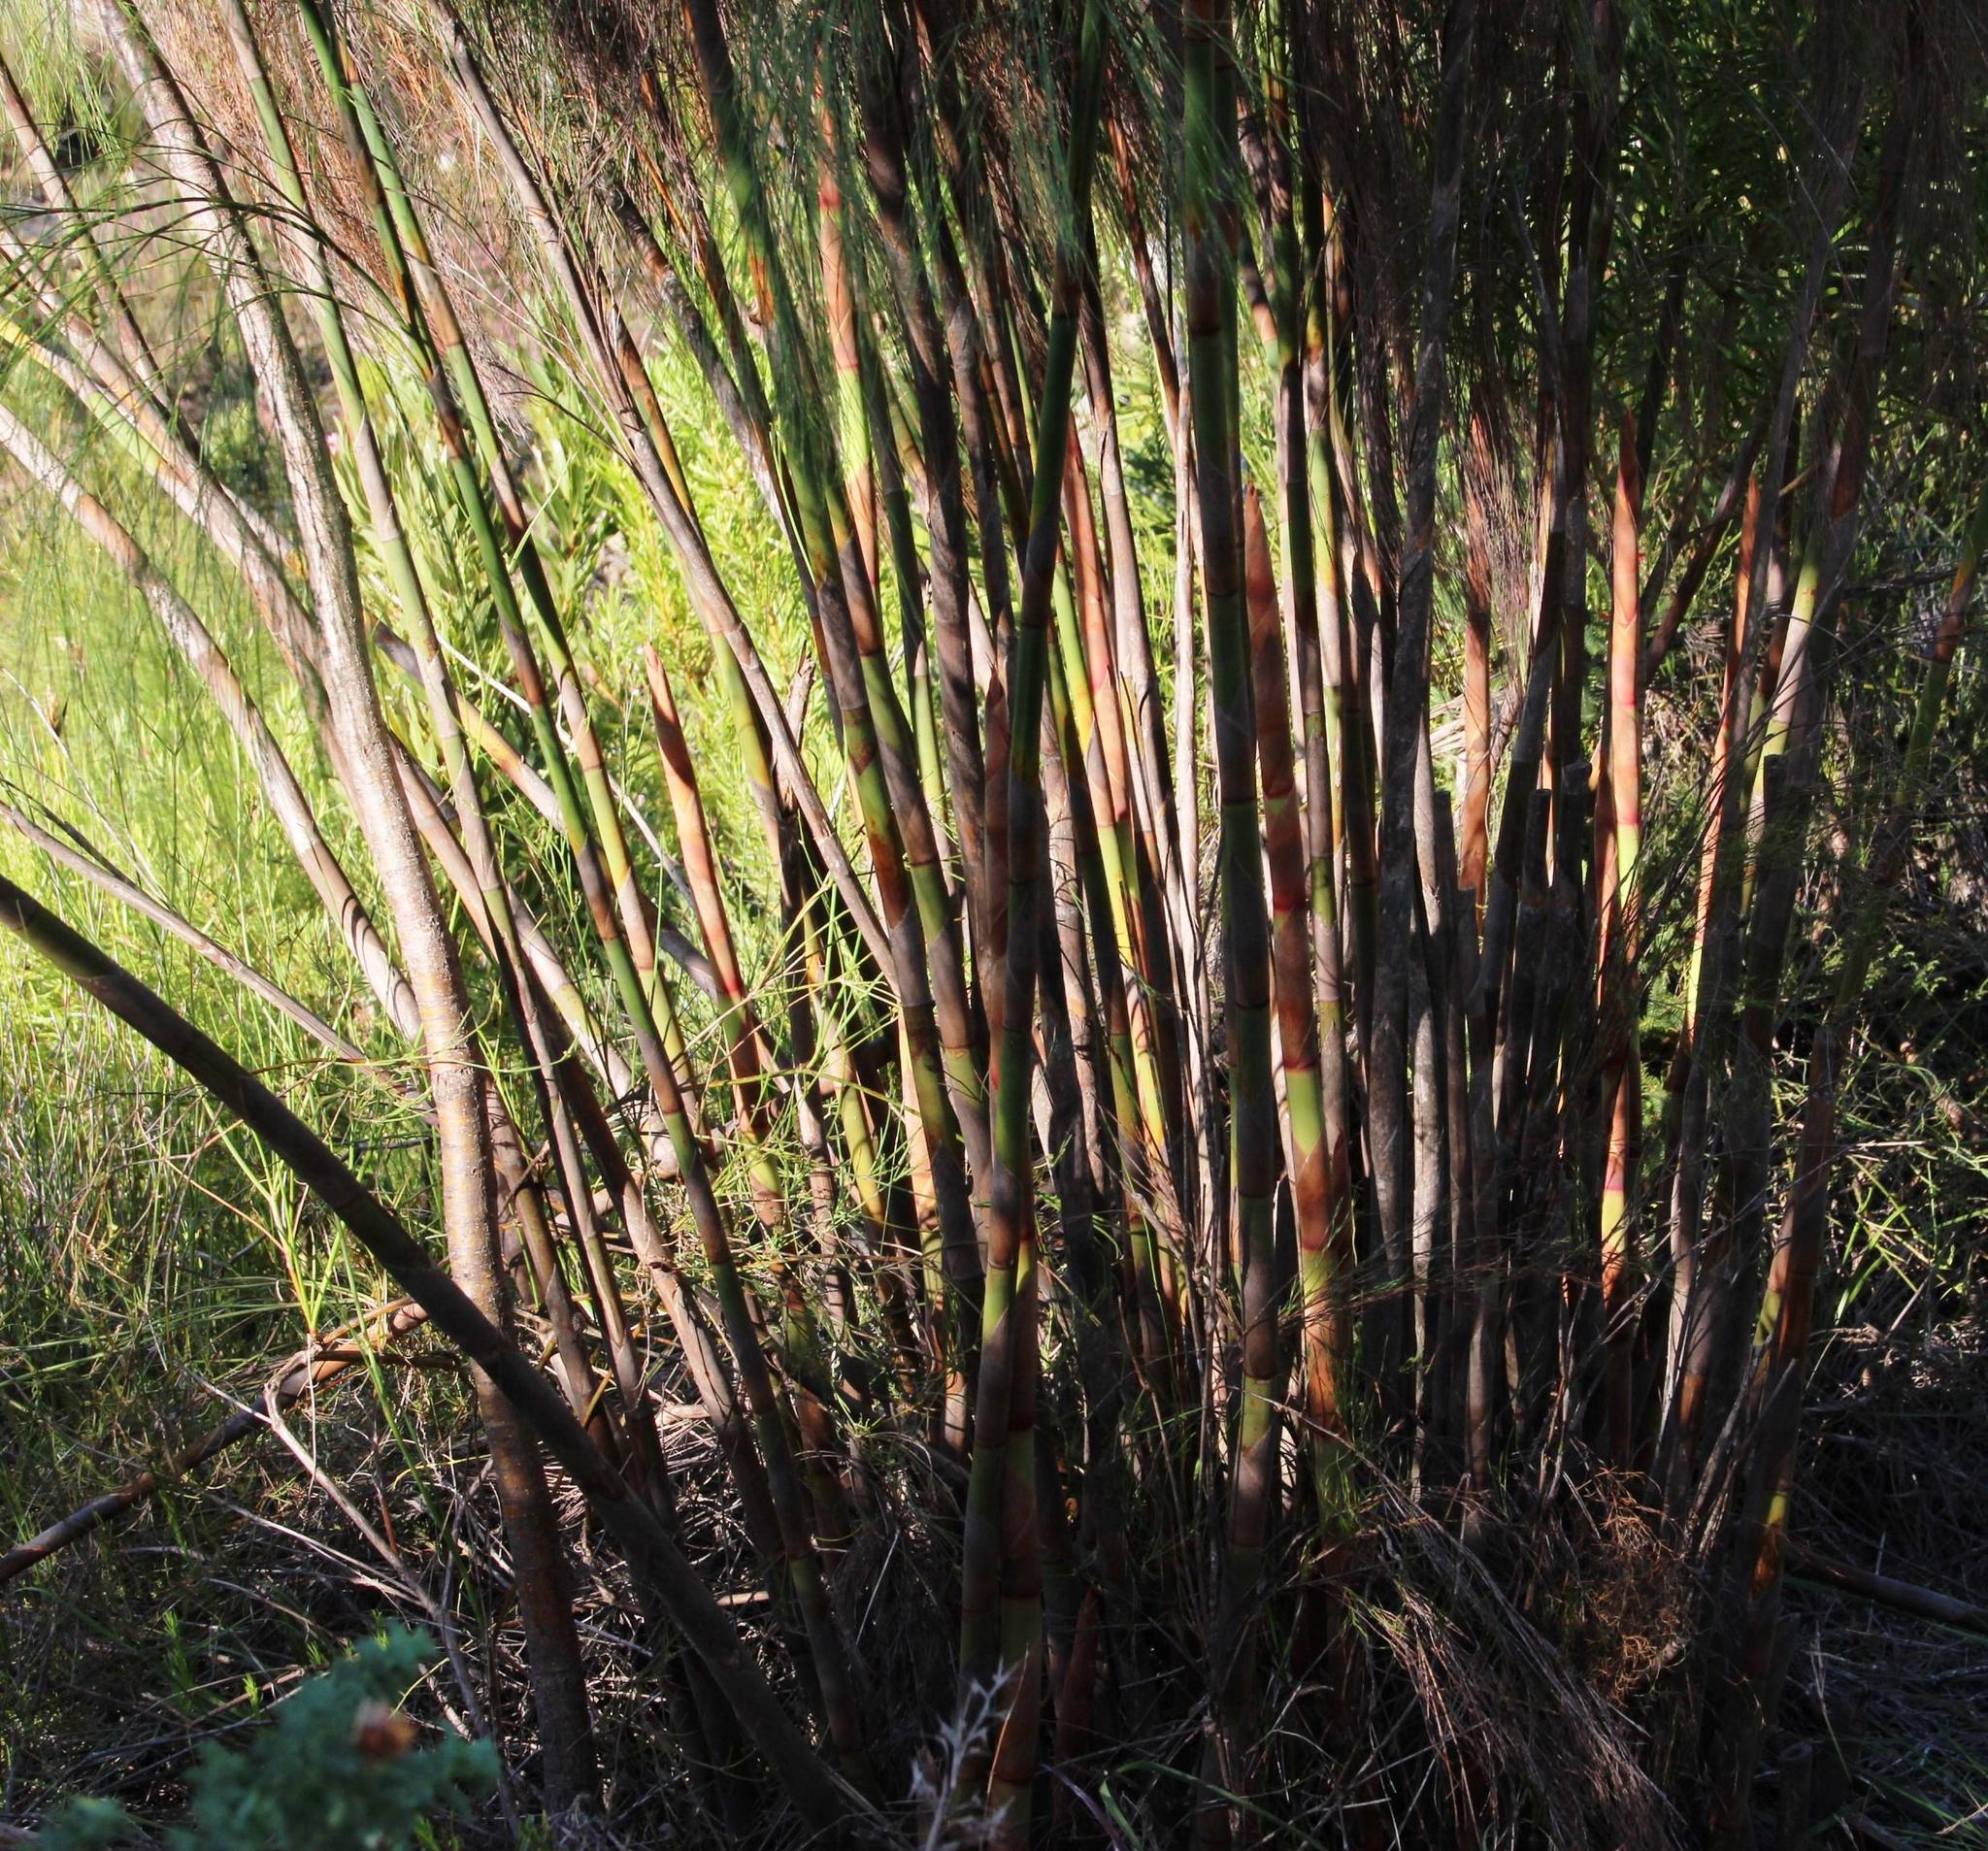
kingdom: Plantae
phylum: Tracheophyta
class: Liliopsida
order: Poales
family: Restionaceae
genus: Cannomois
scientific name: Cannomois grandis
